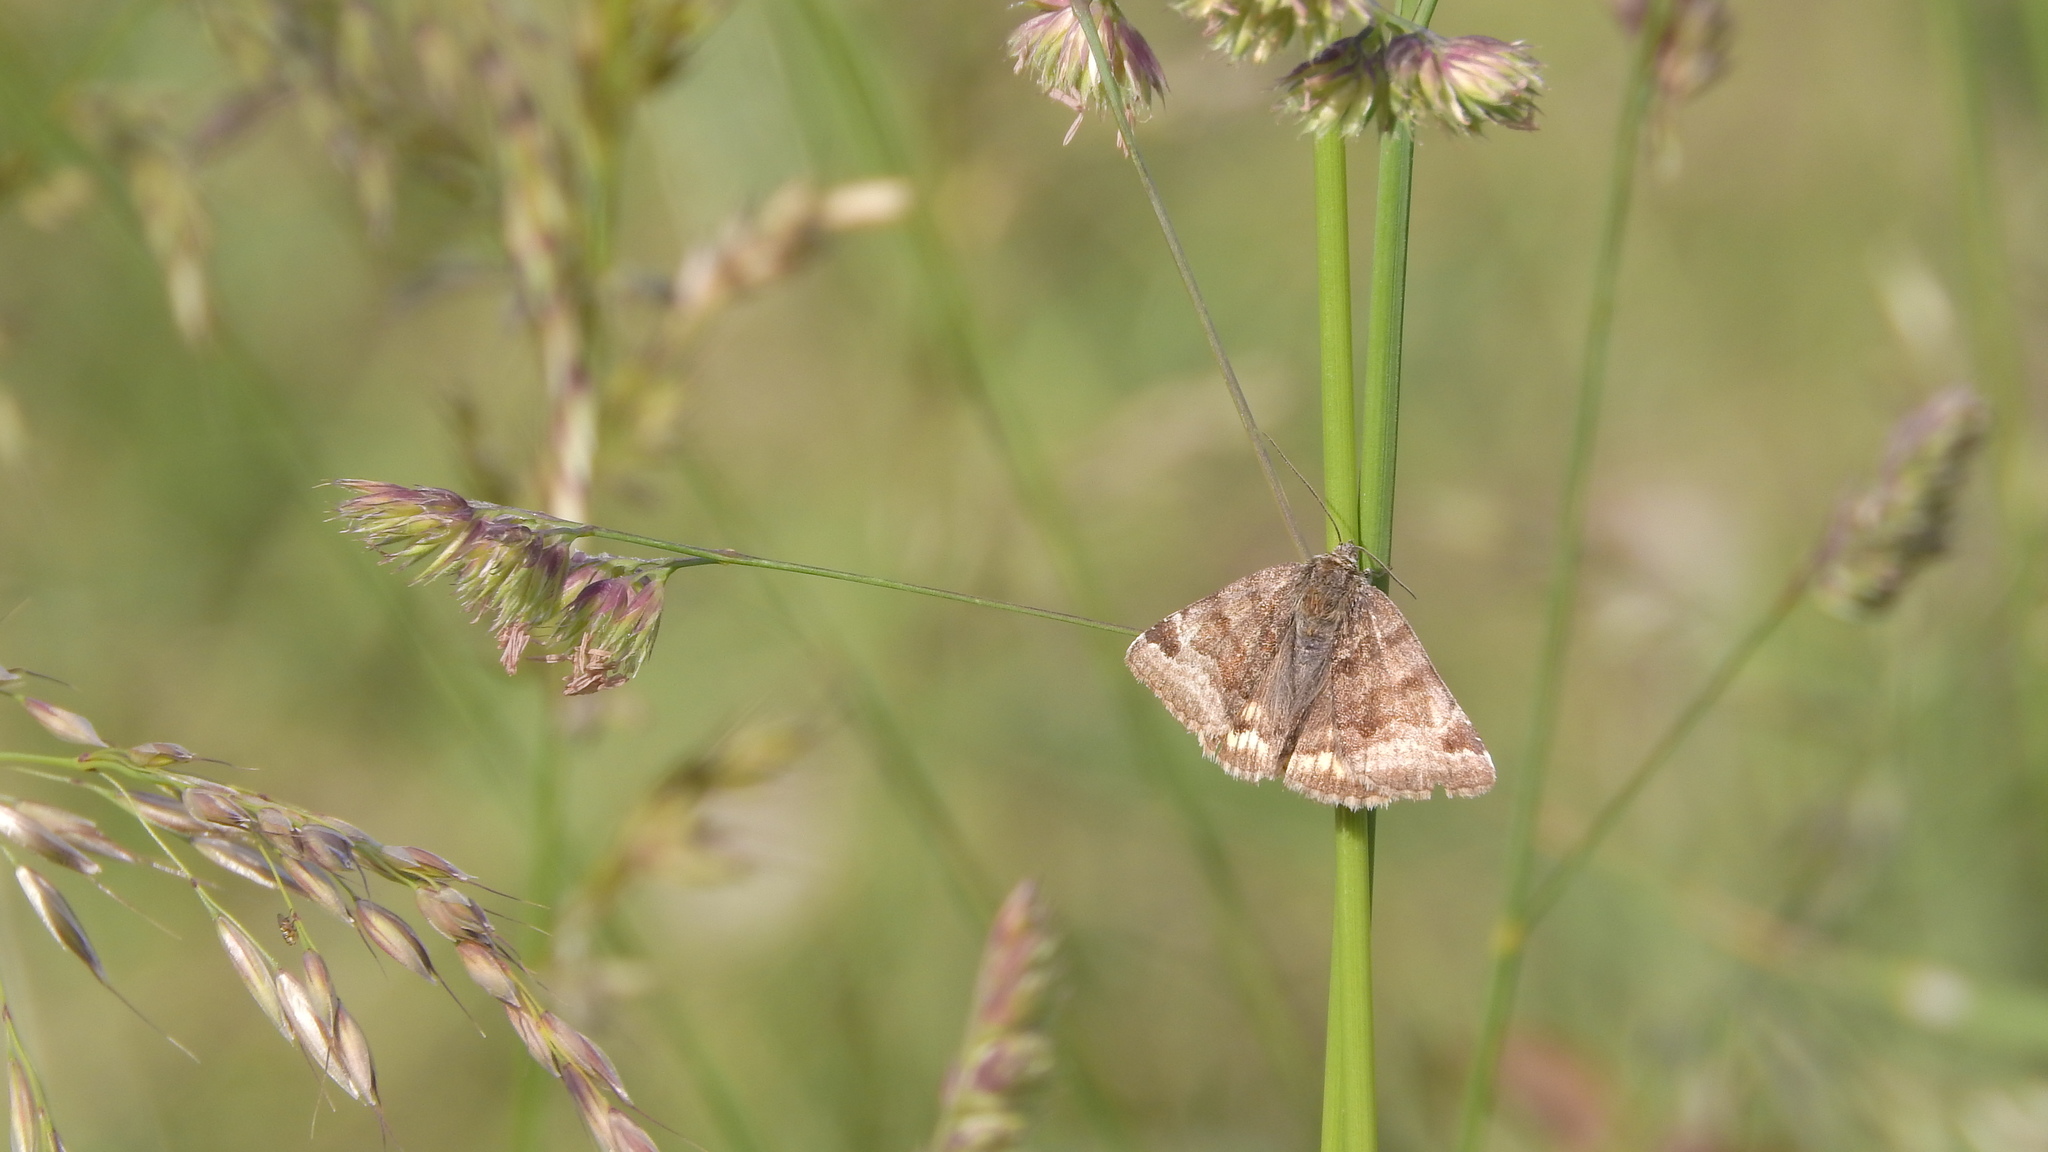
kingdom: Animalia
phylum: Arthropoda
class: Insecta
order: Lepidoptera
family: Erebidae
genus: Euclidia
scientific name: Euclidia glyphica
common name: Burnet companion
